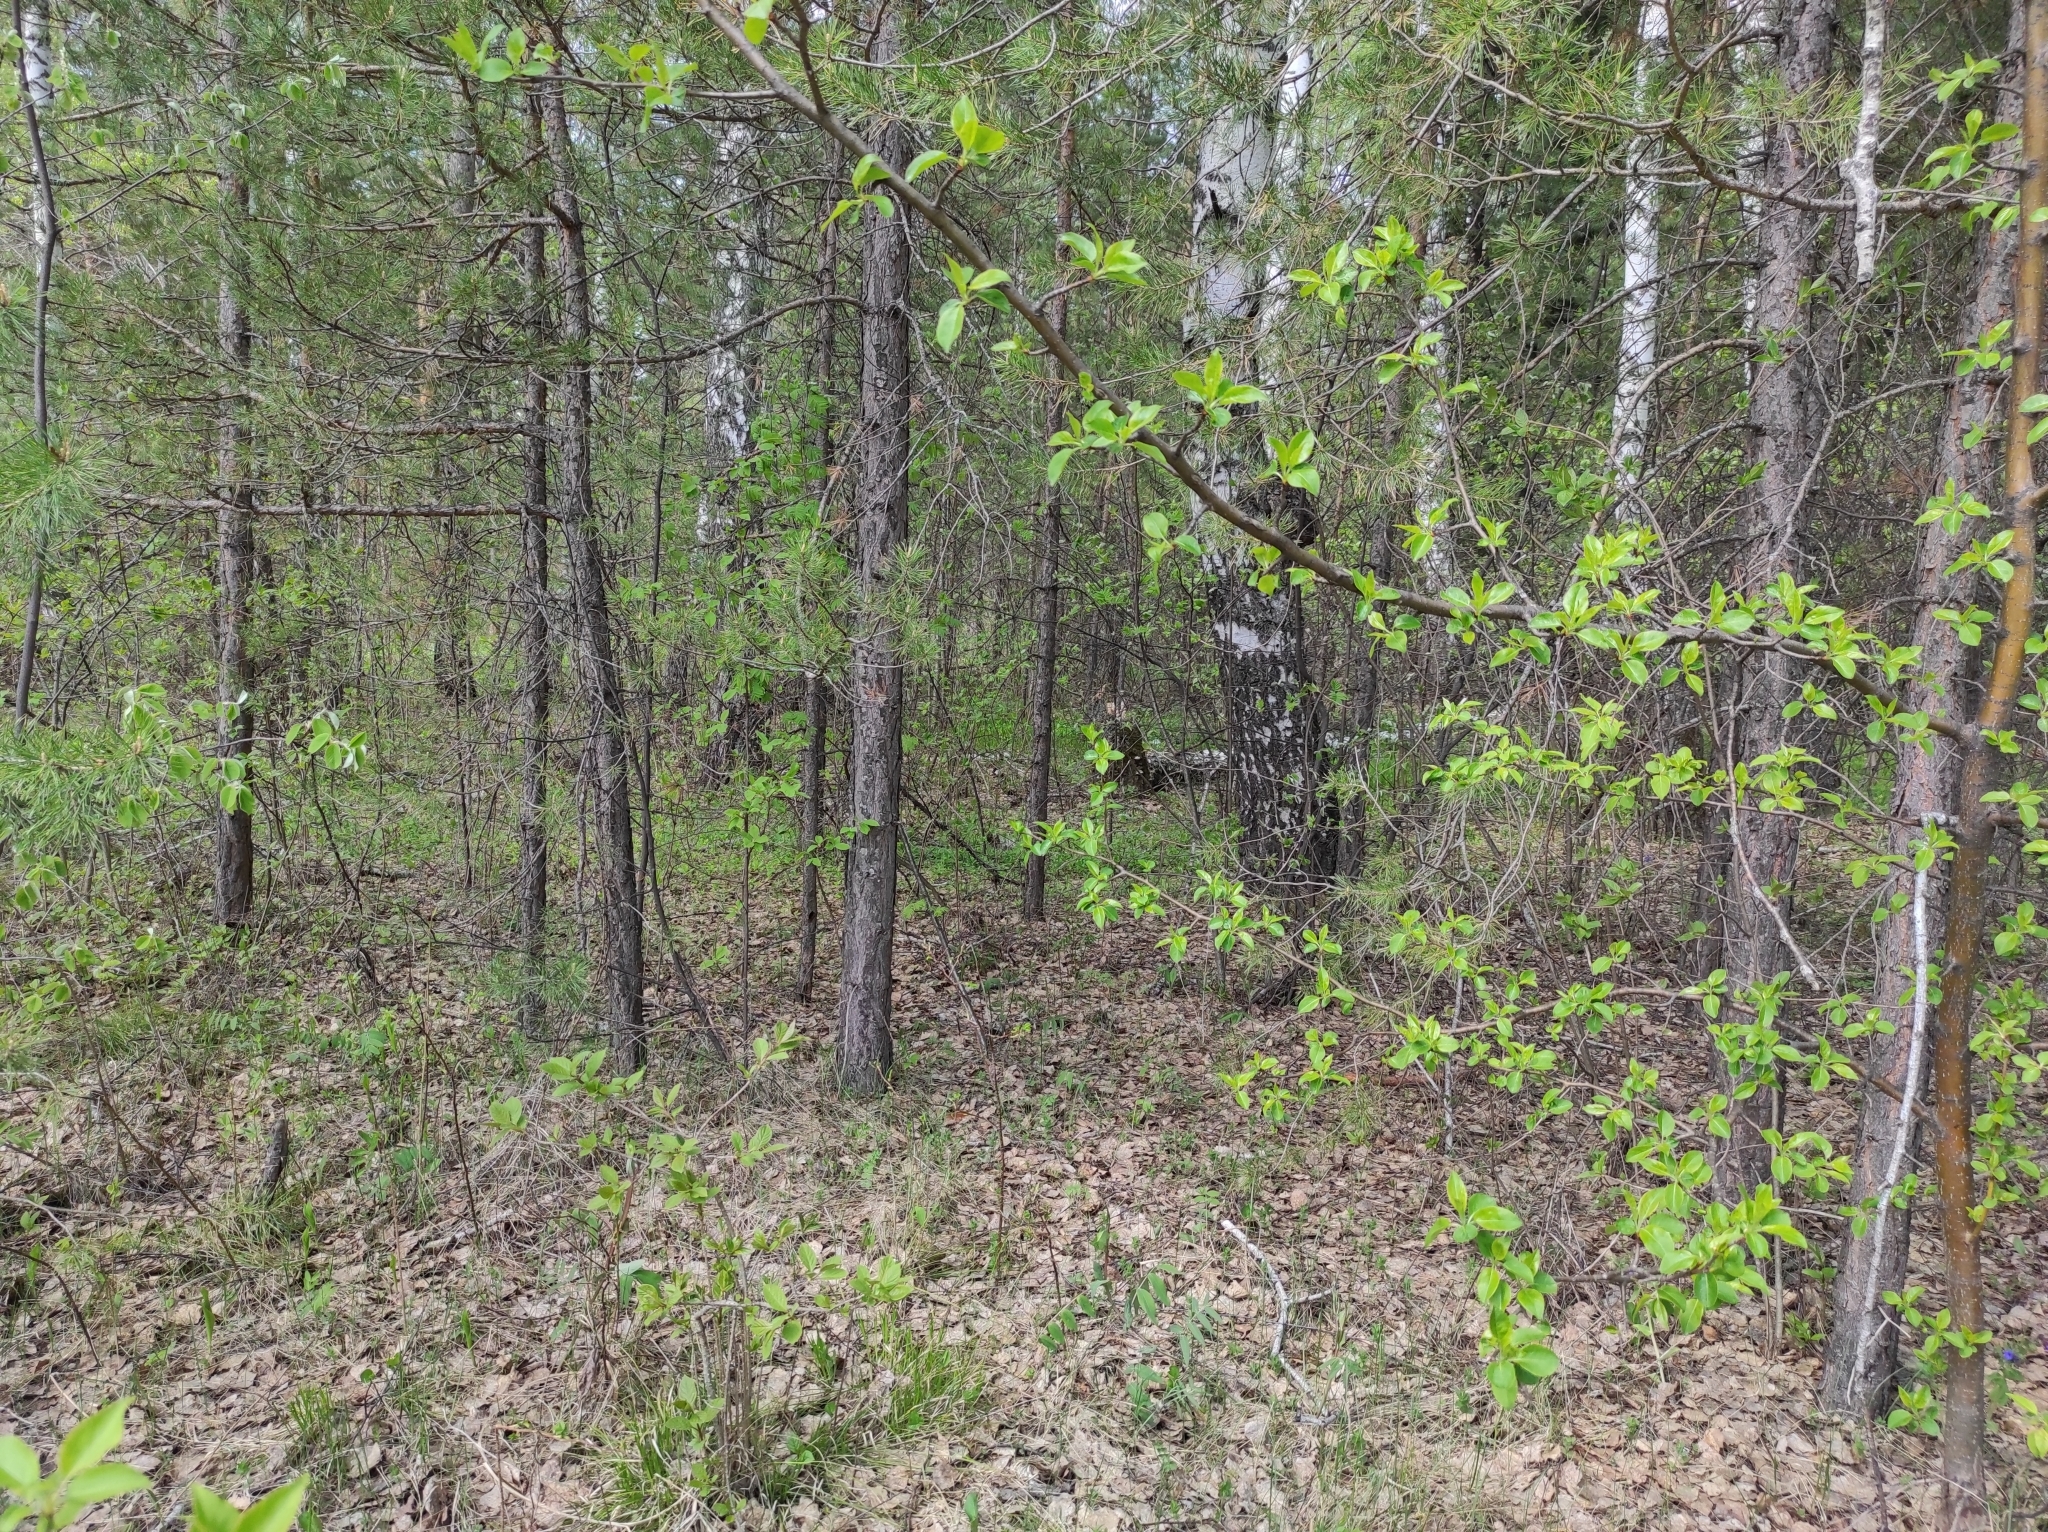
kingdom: Plantae
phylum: Tracheophyta
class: Pinopsida
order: Pinales
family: Pinaceae
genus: Pinus
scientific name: Pinus sylvestris
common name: Scots pine
